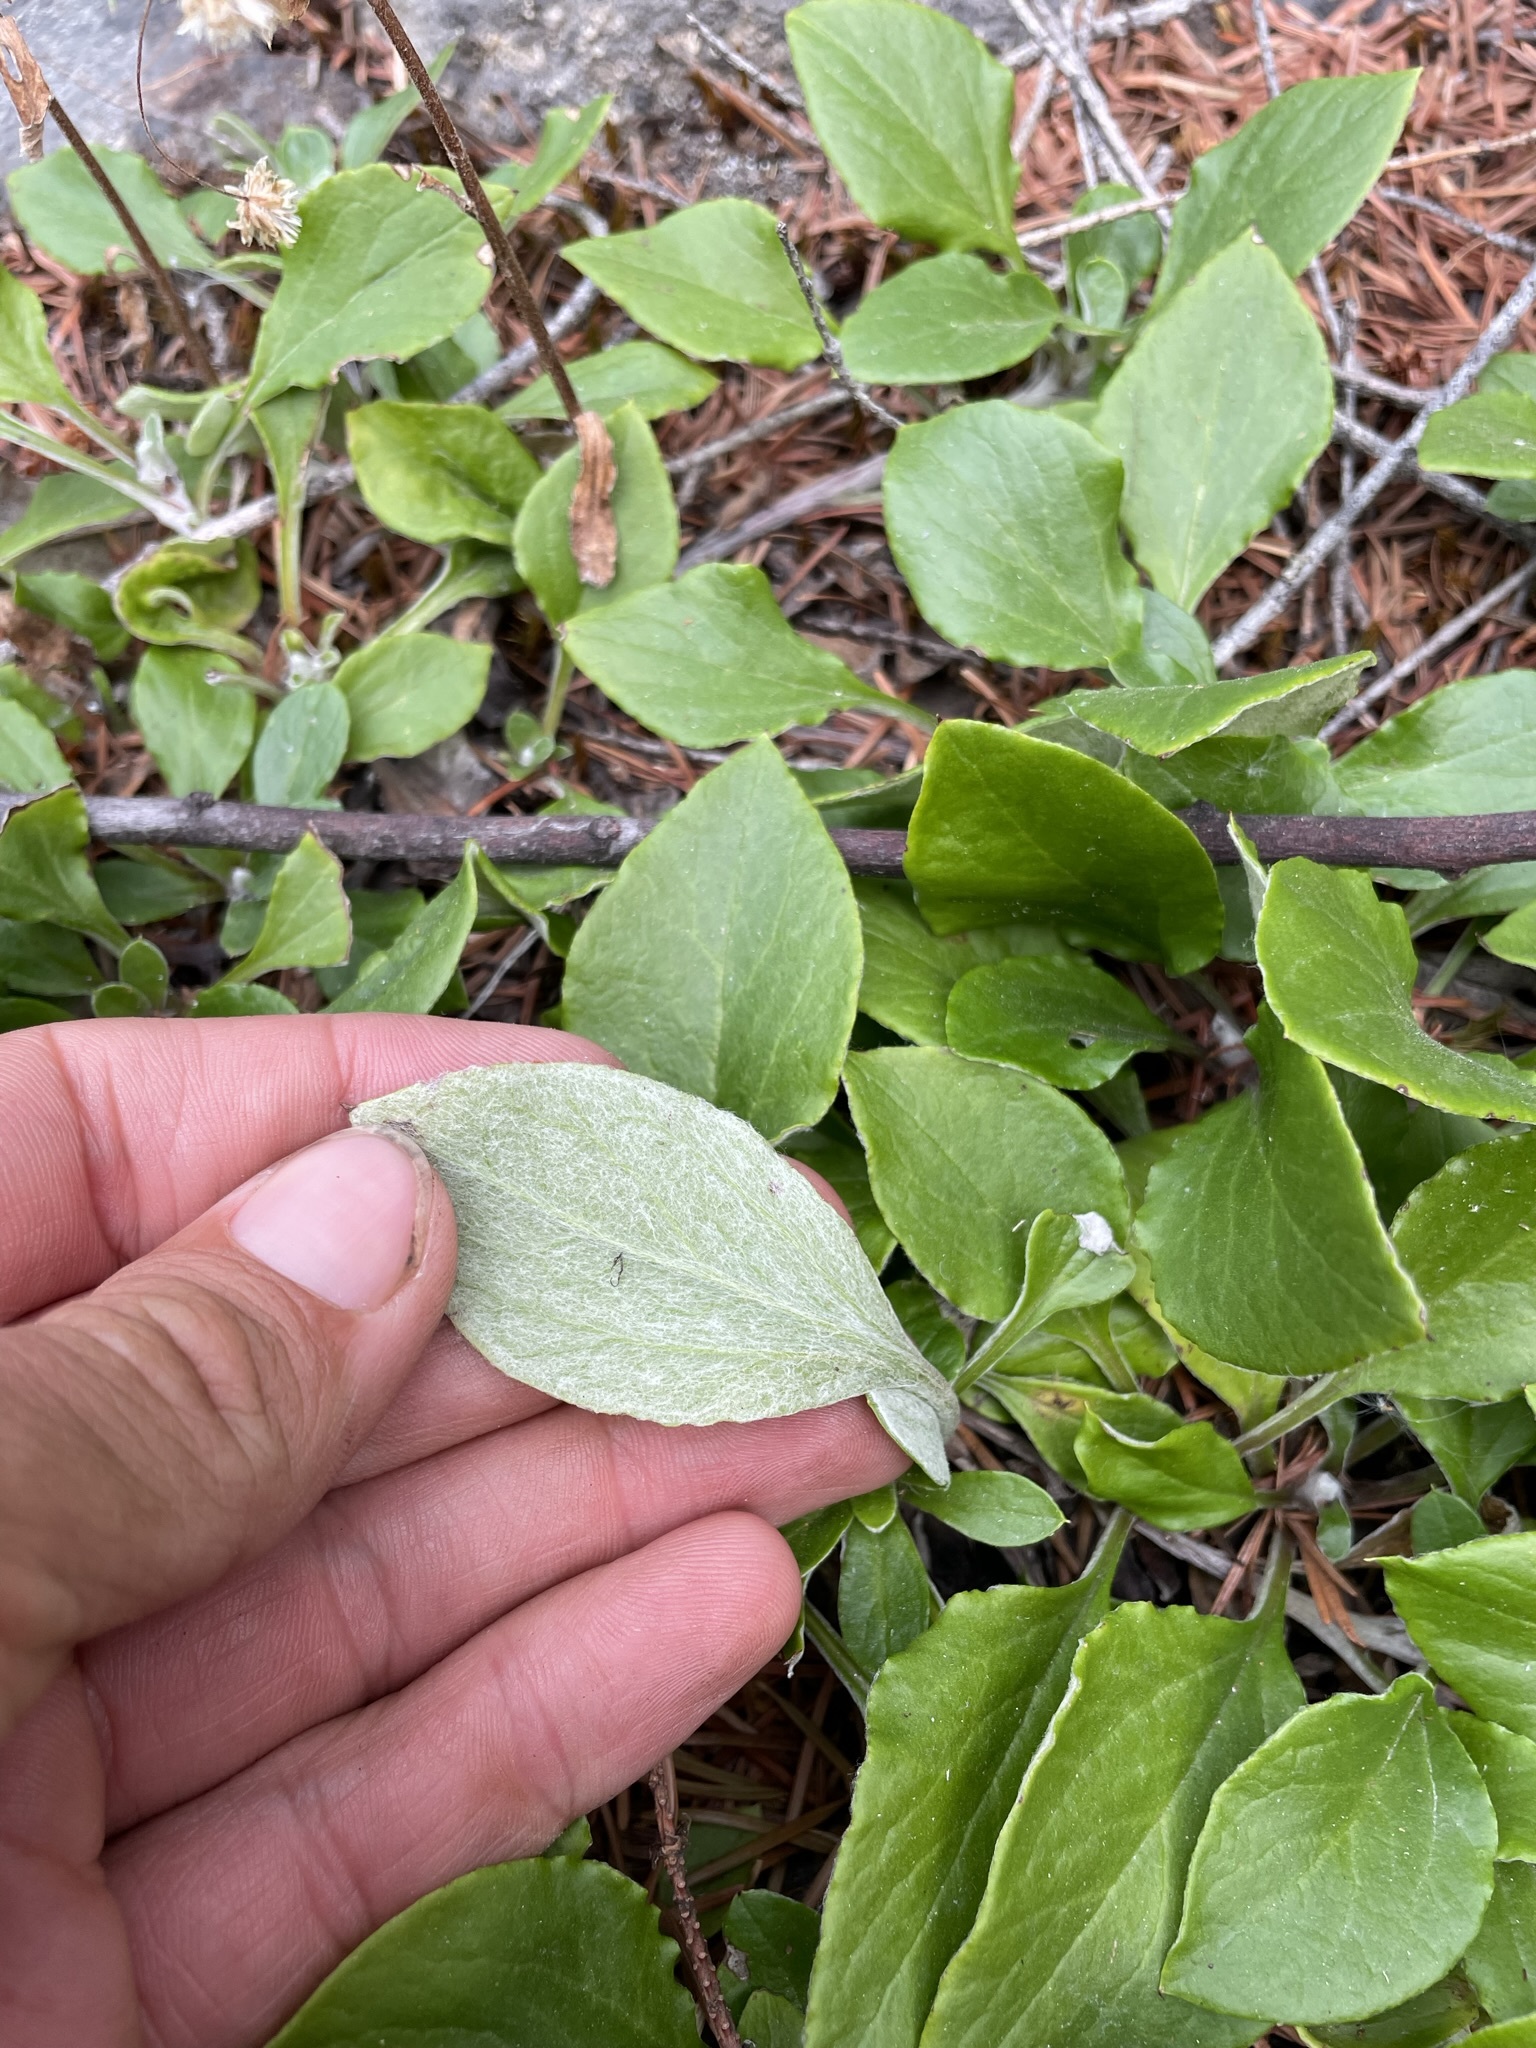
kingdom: Plantae
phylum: Tracheophyta
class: Magnoliopsida
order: Asterales
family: Asteraceae
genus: Antennaria
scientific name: Antennaria racemosa
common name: Racemose pussytoes
